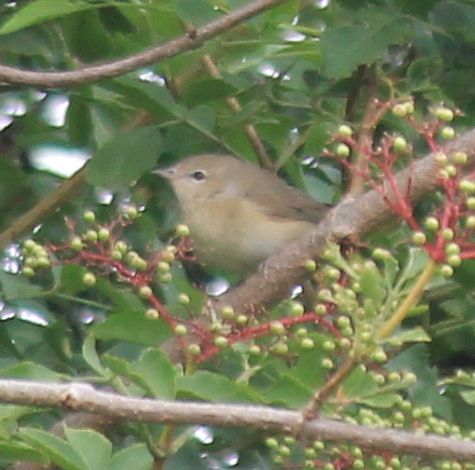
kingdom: Animalia
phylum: Chordata
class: Aves
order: Passeriformes
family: Sylviidae
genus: Sylvia
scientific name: Sylvia borin
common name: Garden warbler
